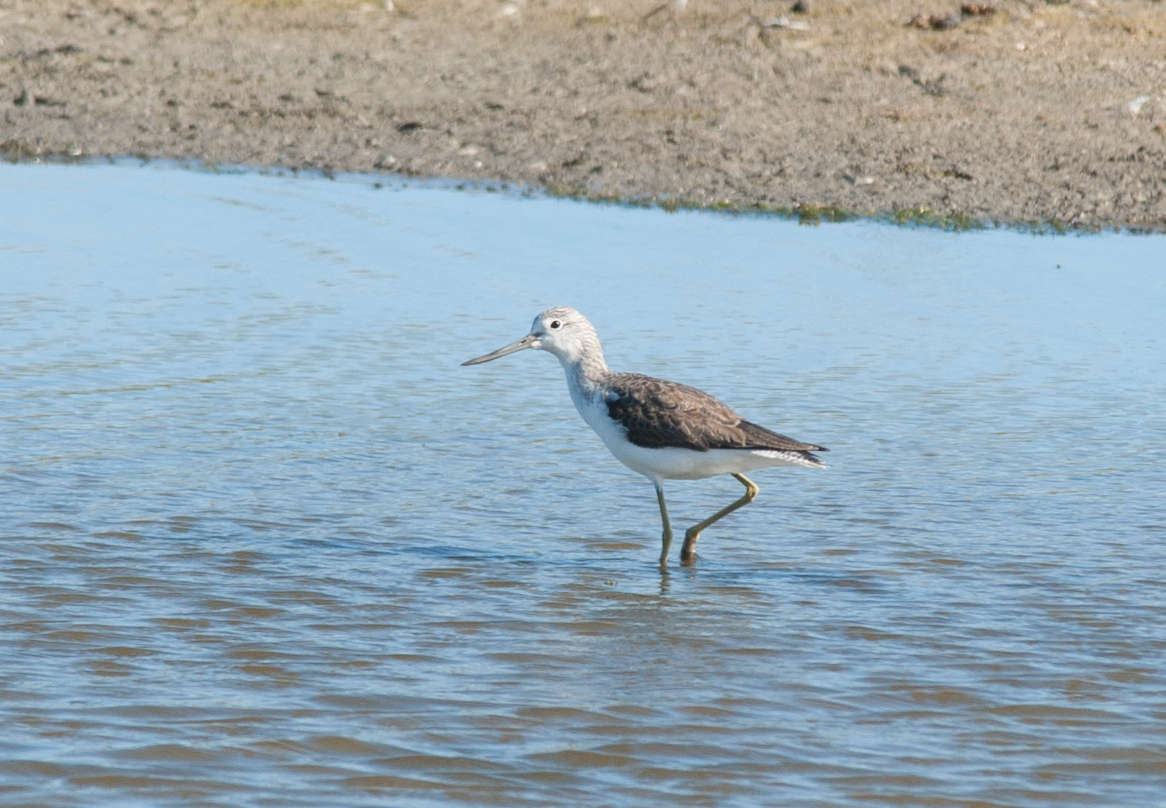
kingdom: Animalia
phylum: Chordata
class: Aves
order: Charadriiformes
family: Scolopacidae
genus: Tringa
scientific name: Tringa nebularia
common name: Common greenshank
